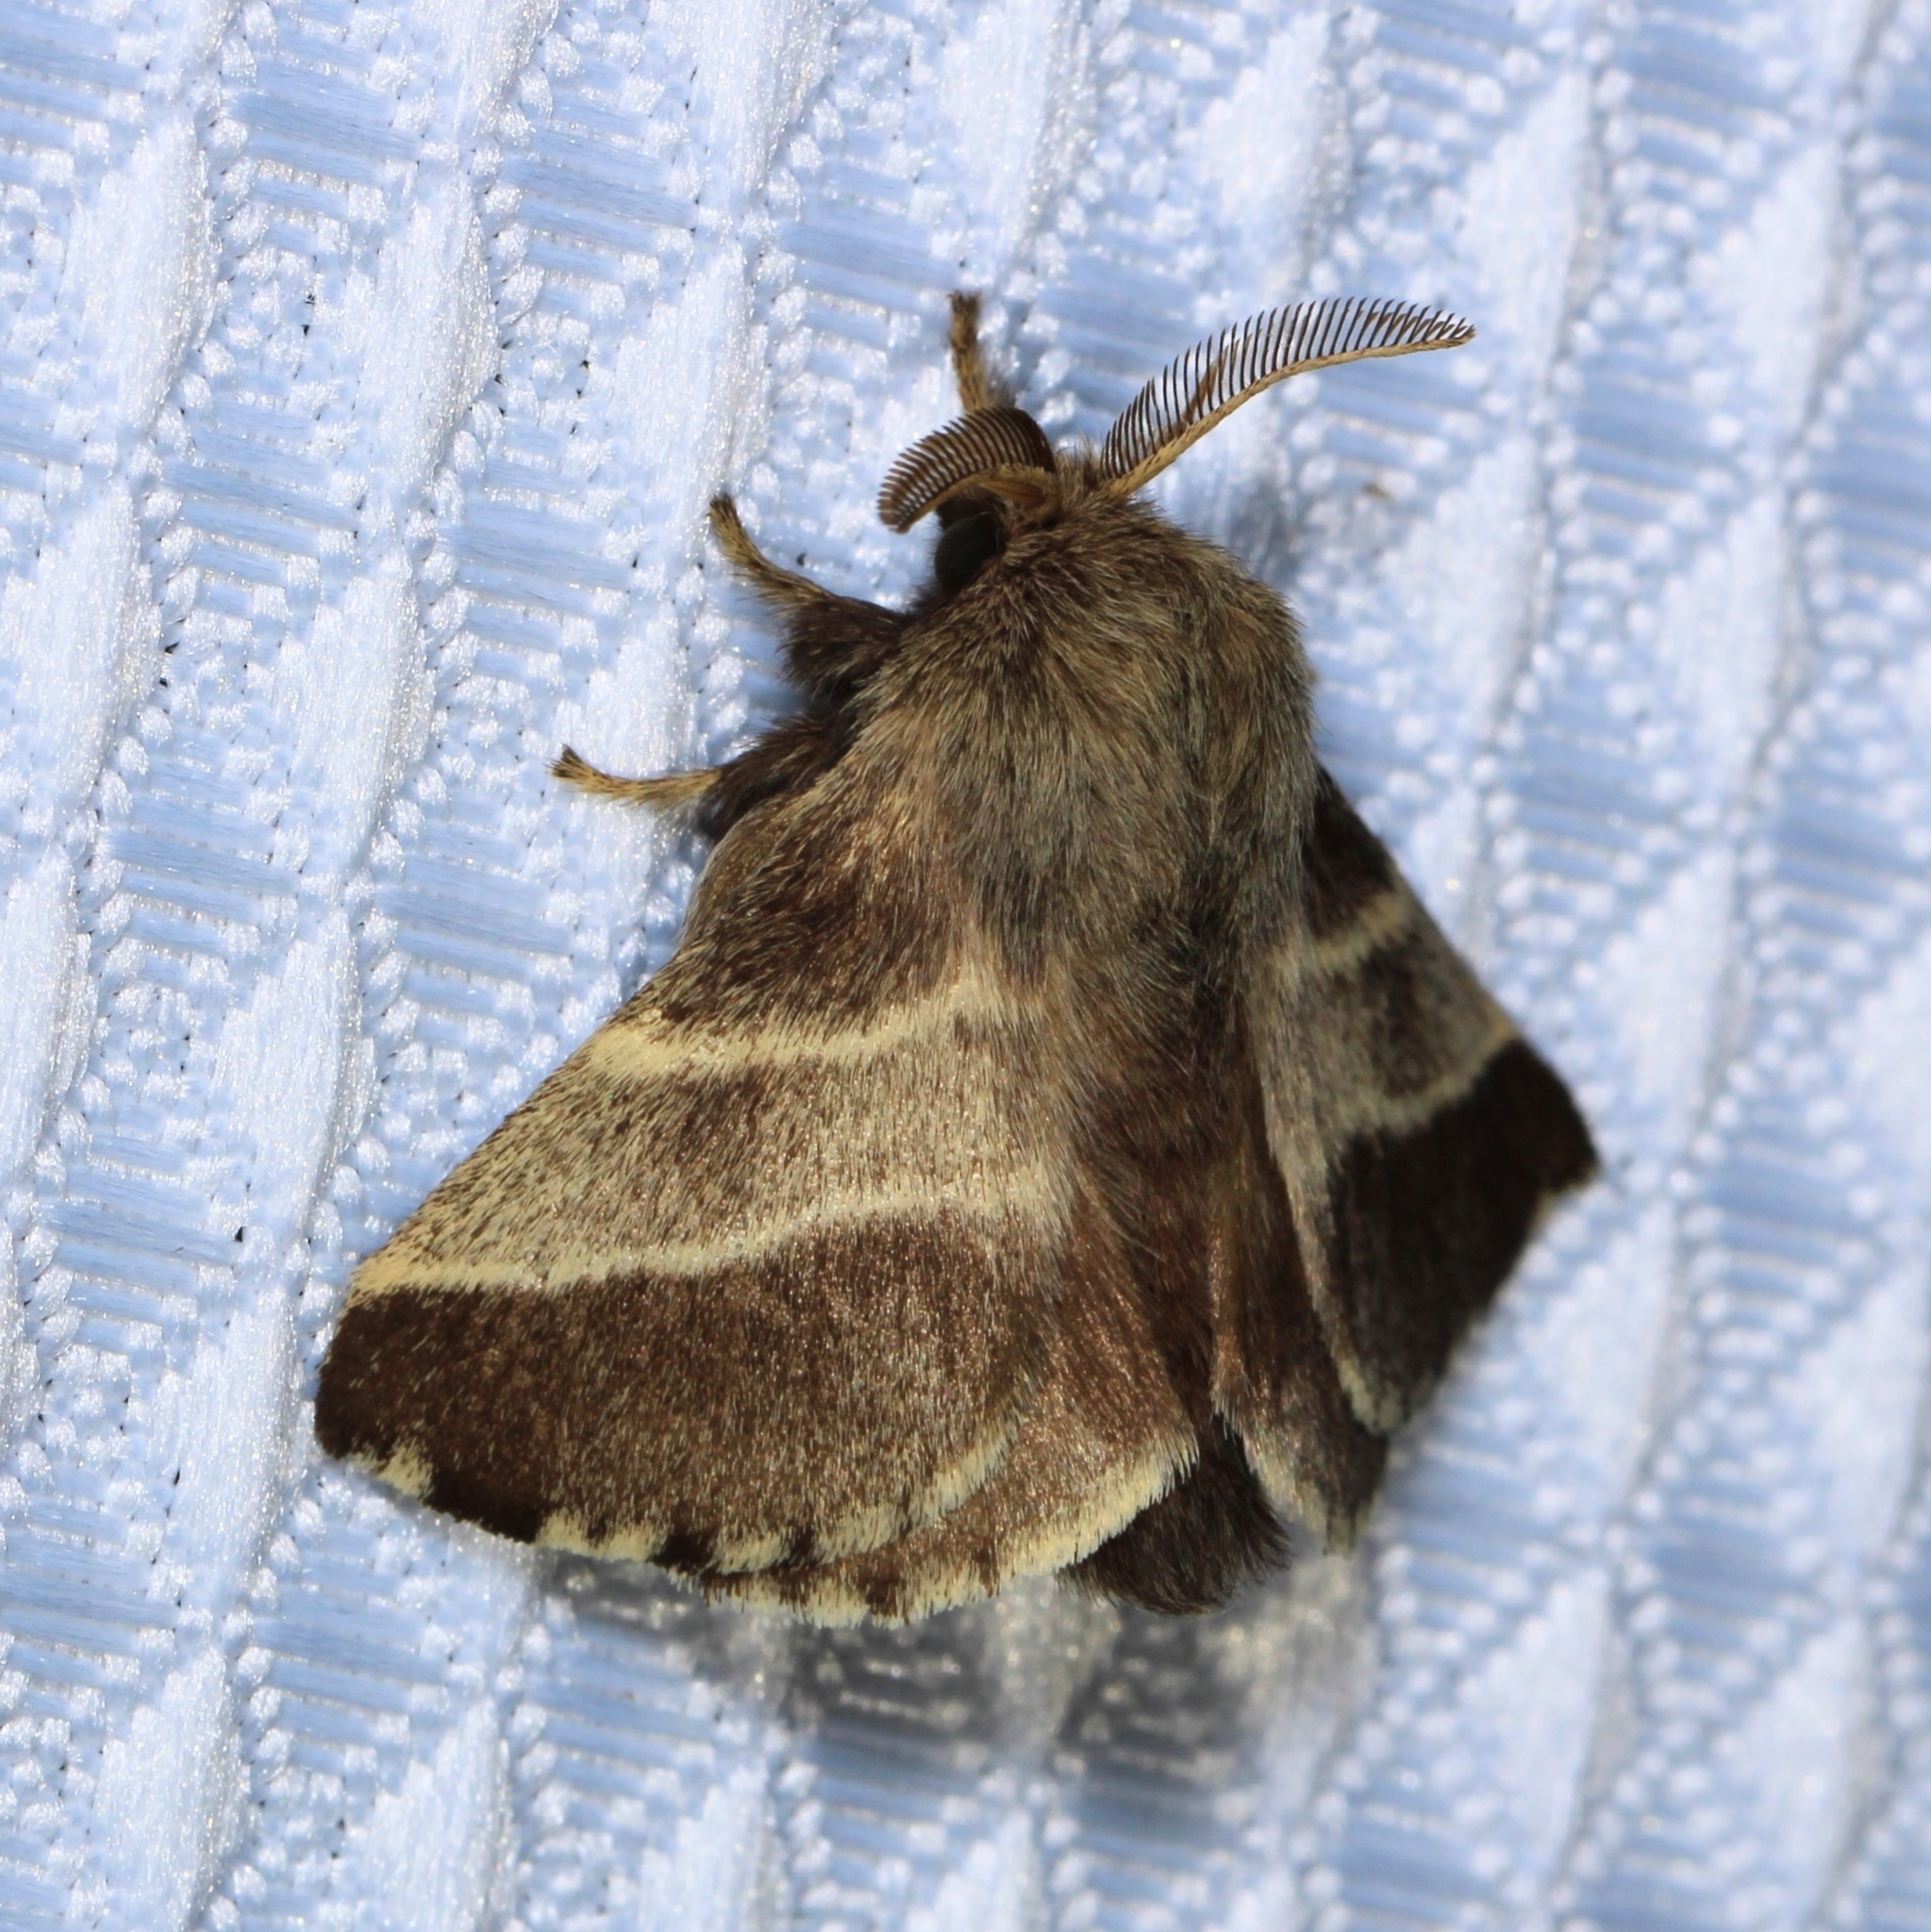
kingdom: Animalia
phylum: Arthropoda
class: Insecta
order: Lepidoptera
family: Lasiocampidae
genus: Malacosoma
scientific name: Malacosoma americana
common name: Eastern tent caterpillar moth
